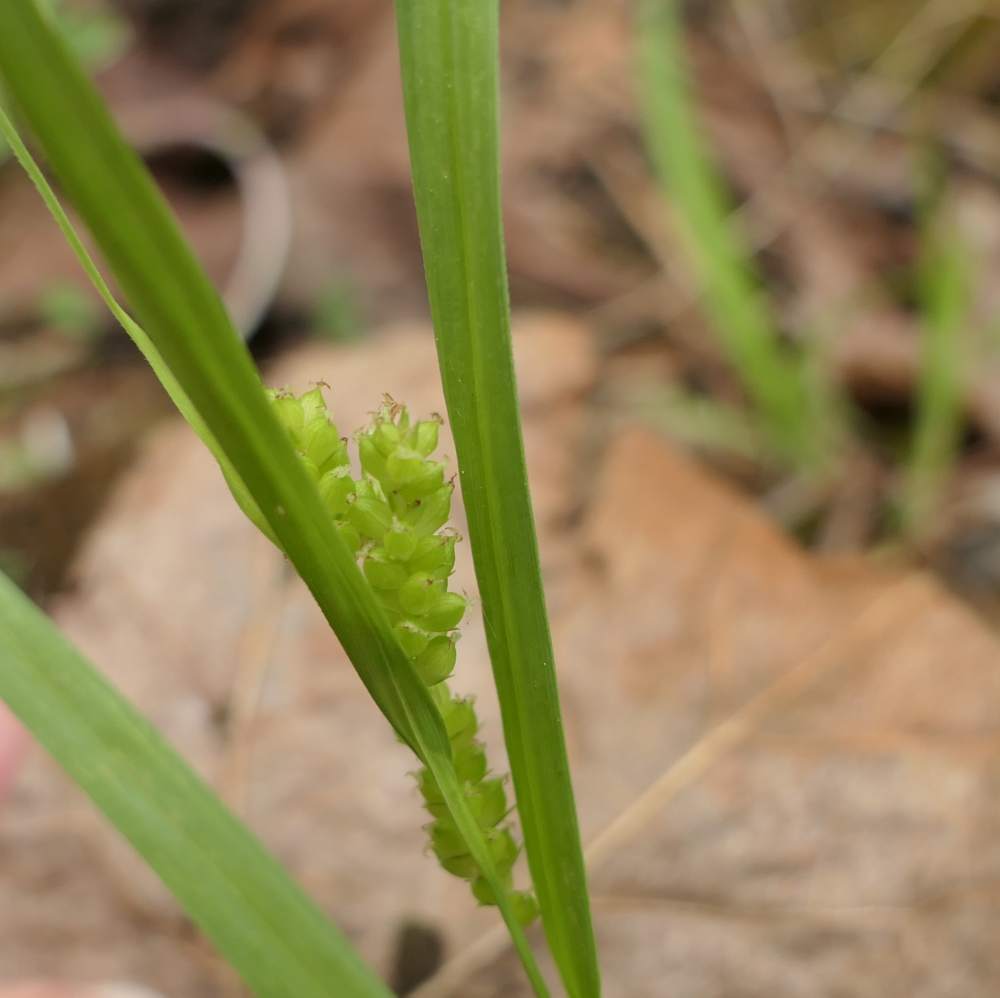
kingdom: Plantae
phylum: Tracheophyta
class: Liliopsida
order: Poales
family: Cyperaceae
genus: Carex
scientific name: Carex granularis
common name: Granular sedge
